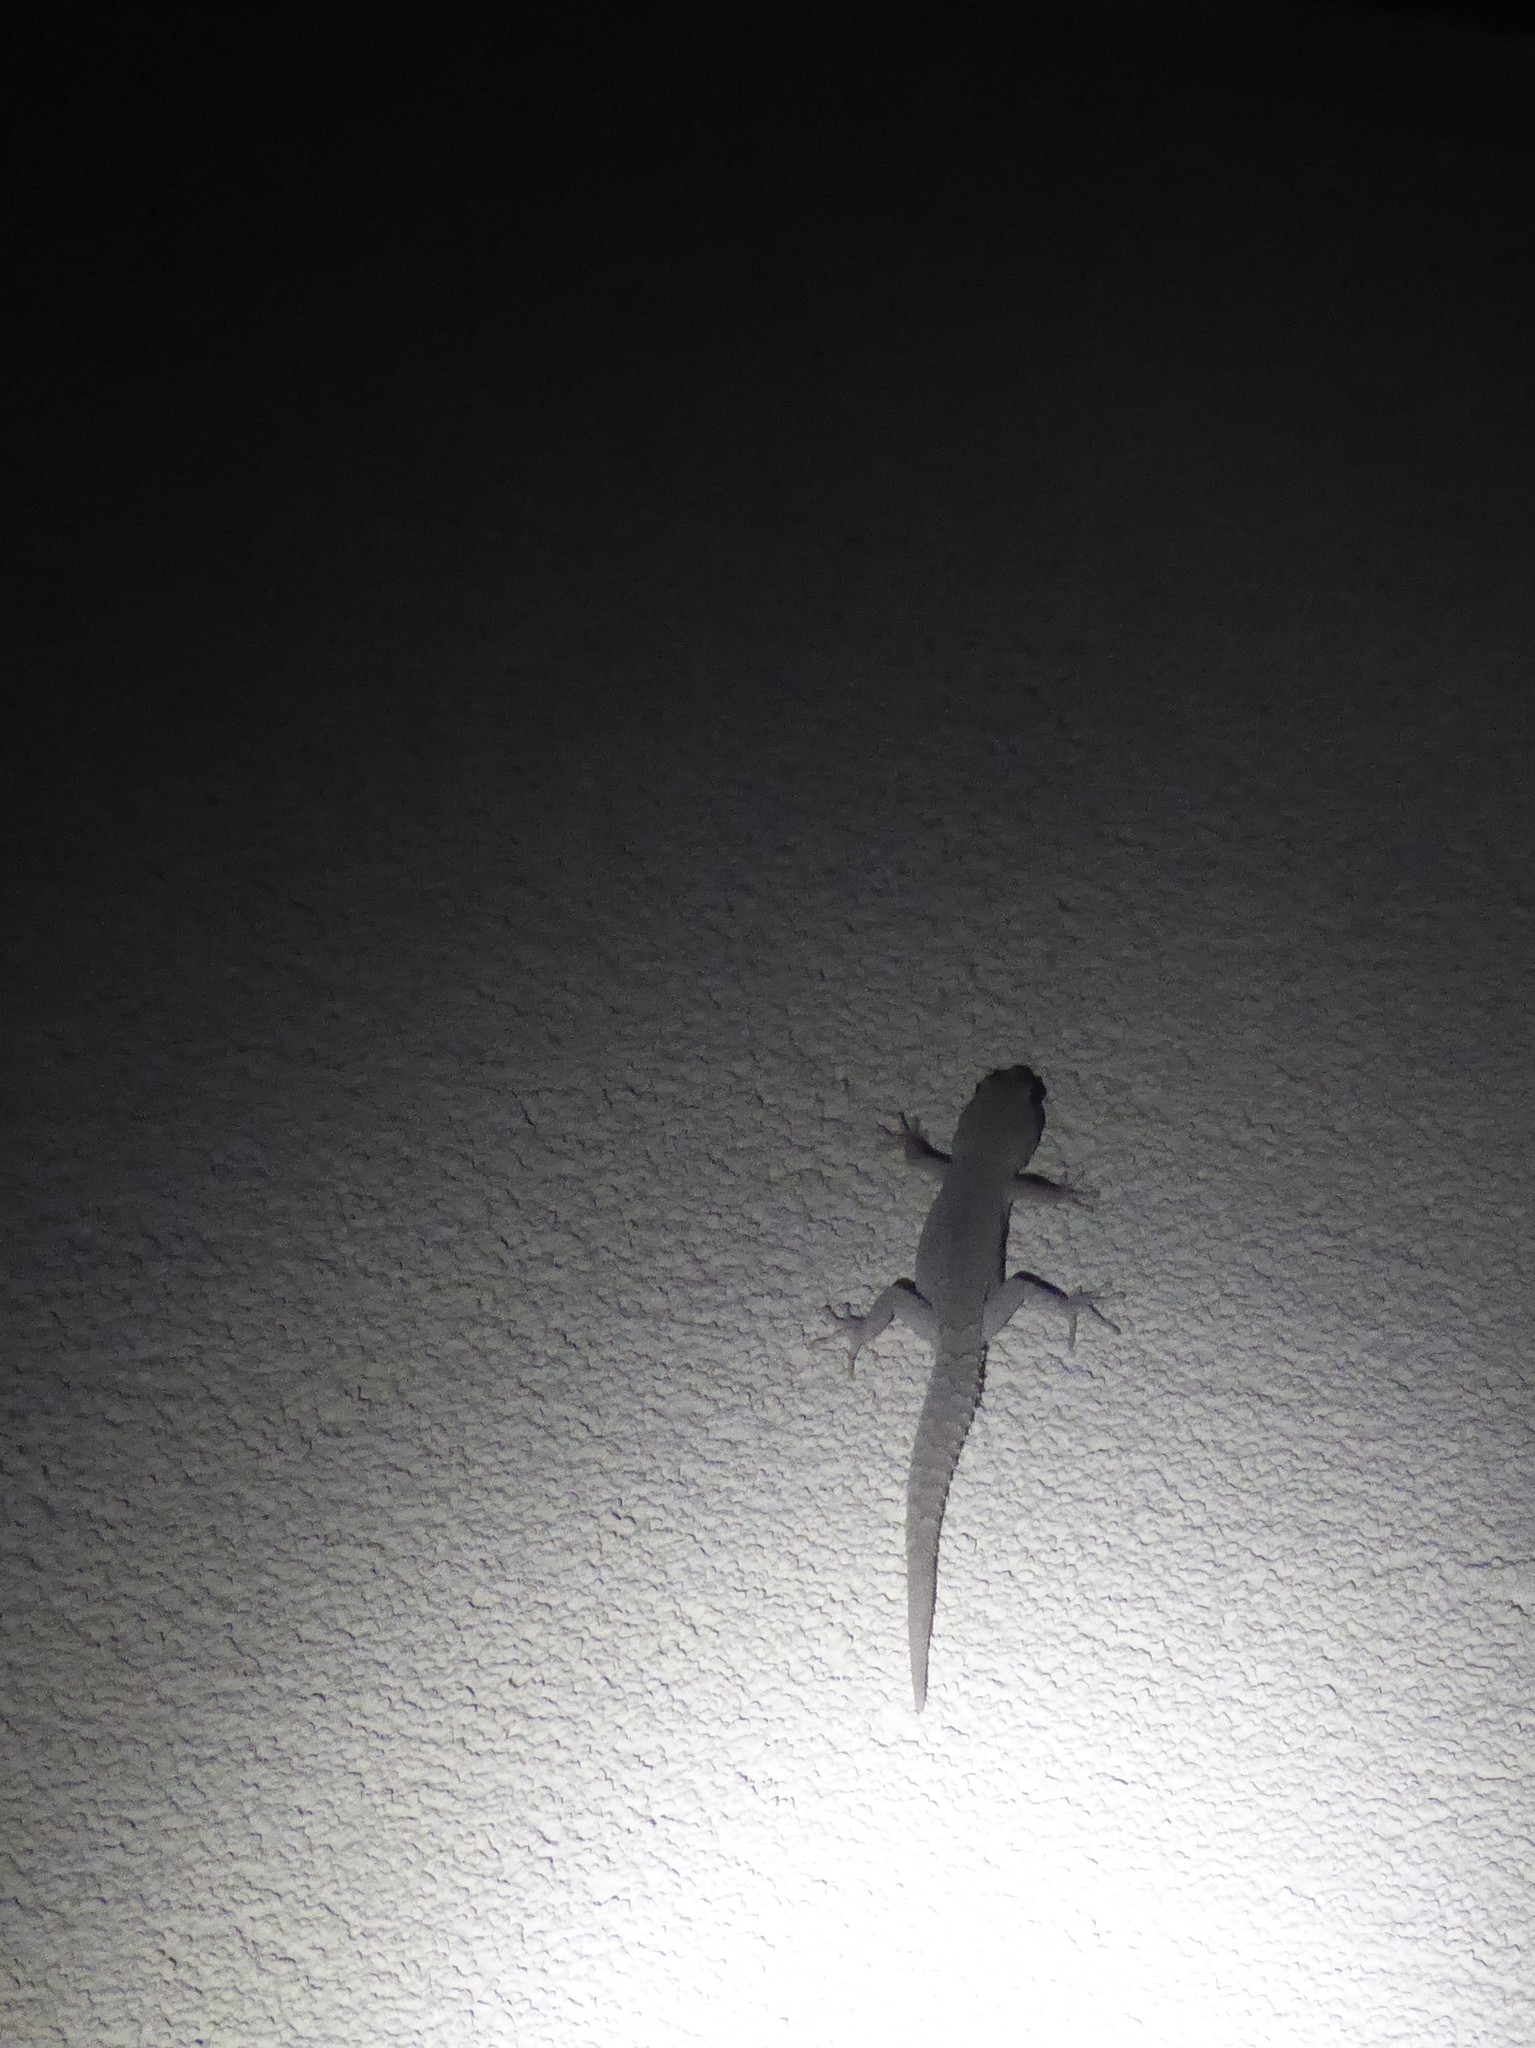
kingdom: Animalia
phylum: Chordata
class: Squamata
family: Gekkonidae
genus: Mediodactylus
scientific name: Mediodactylus bartoni
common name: Barton’s thin-toed gecko
